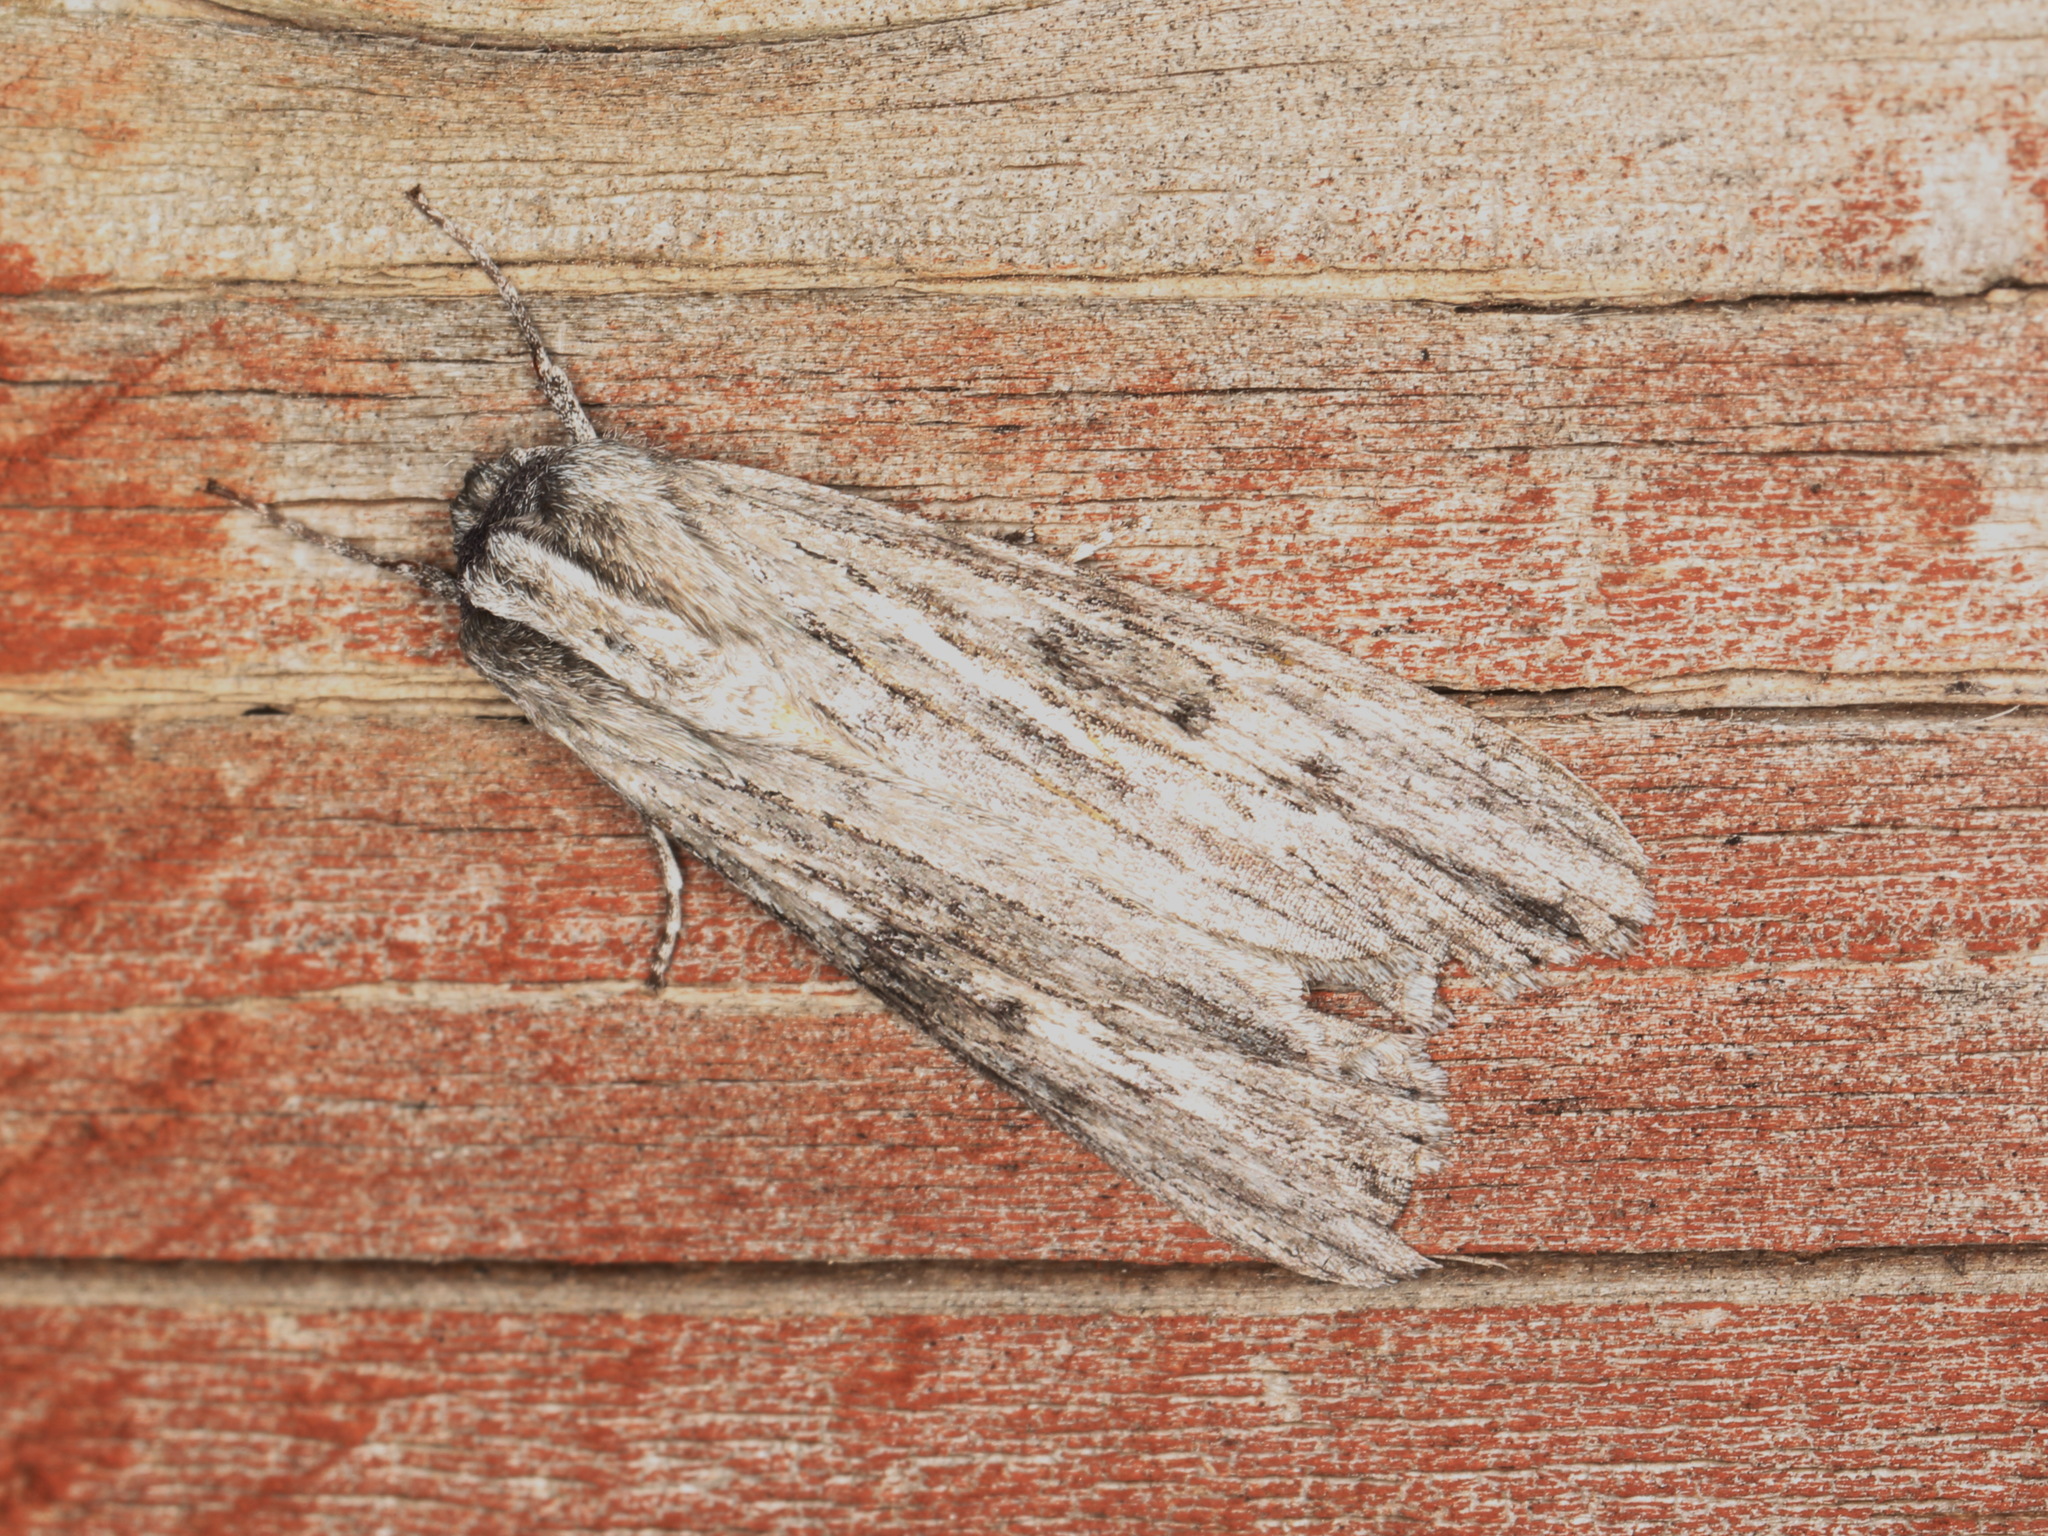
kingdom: Animalia
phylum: Arthropoda
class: Insecta
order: Lepidoptera
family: Geometridae
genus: Capusa
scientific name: Capusa senilis
